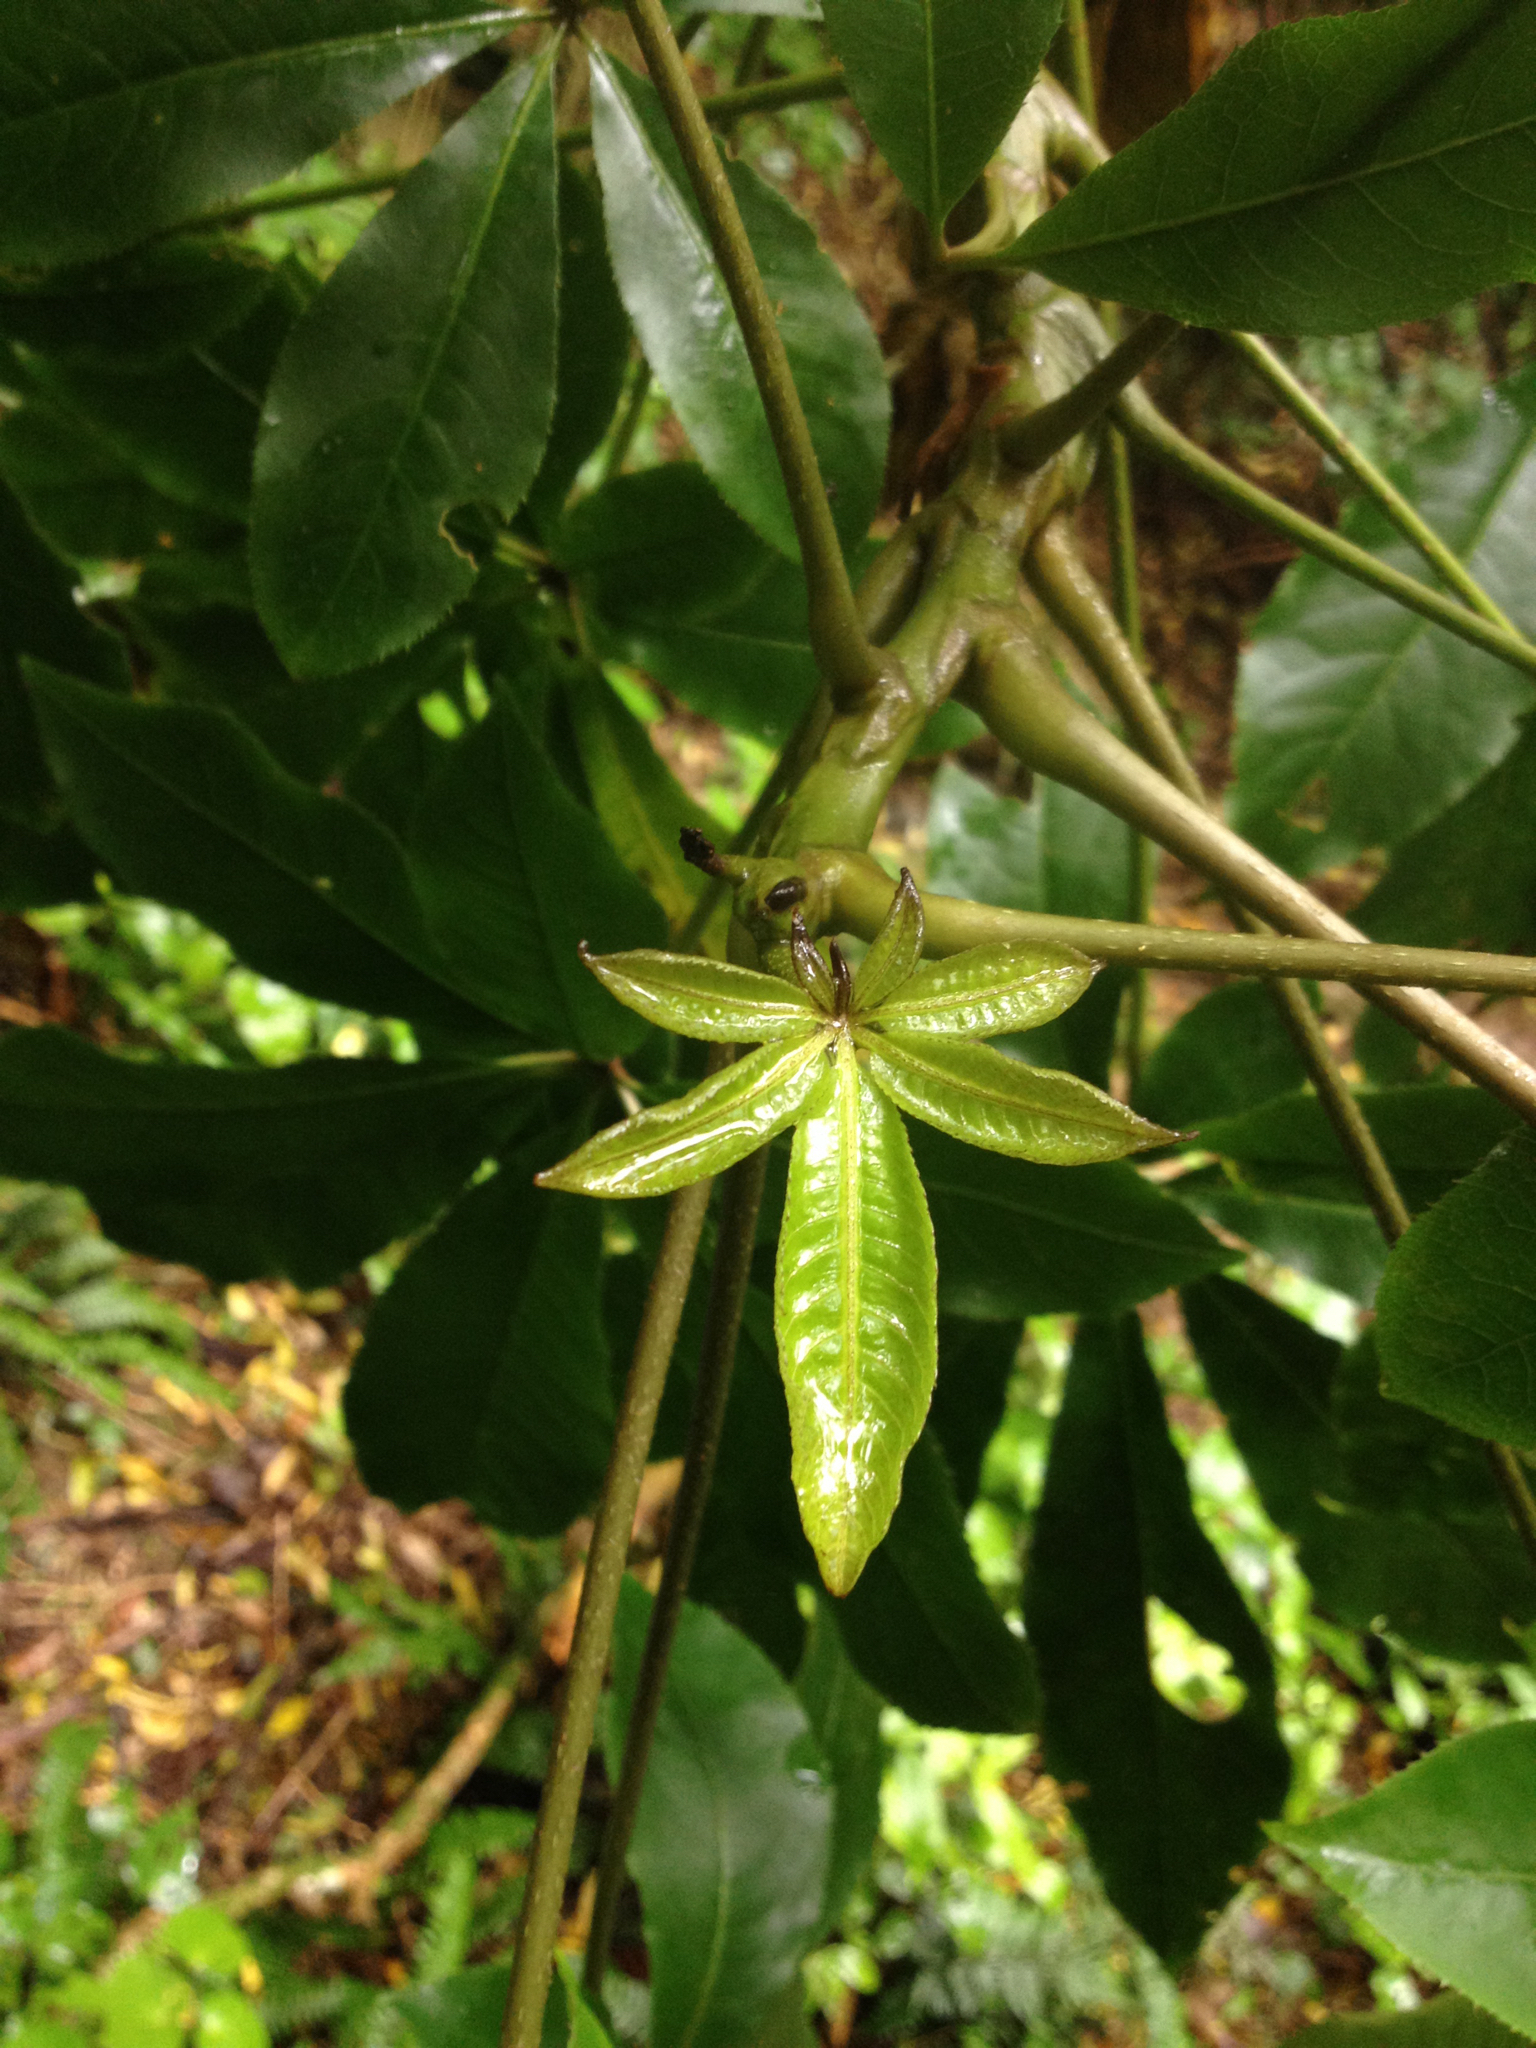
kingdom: Plantae
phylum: Tracheophyta
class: Magnoliopsida
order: Apiales
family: Araliaceae
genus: Schefflera
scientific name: Schefflera digitata
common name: Pate
